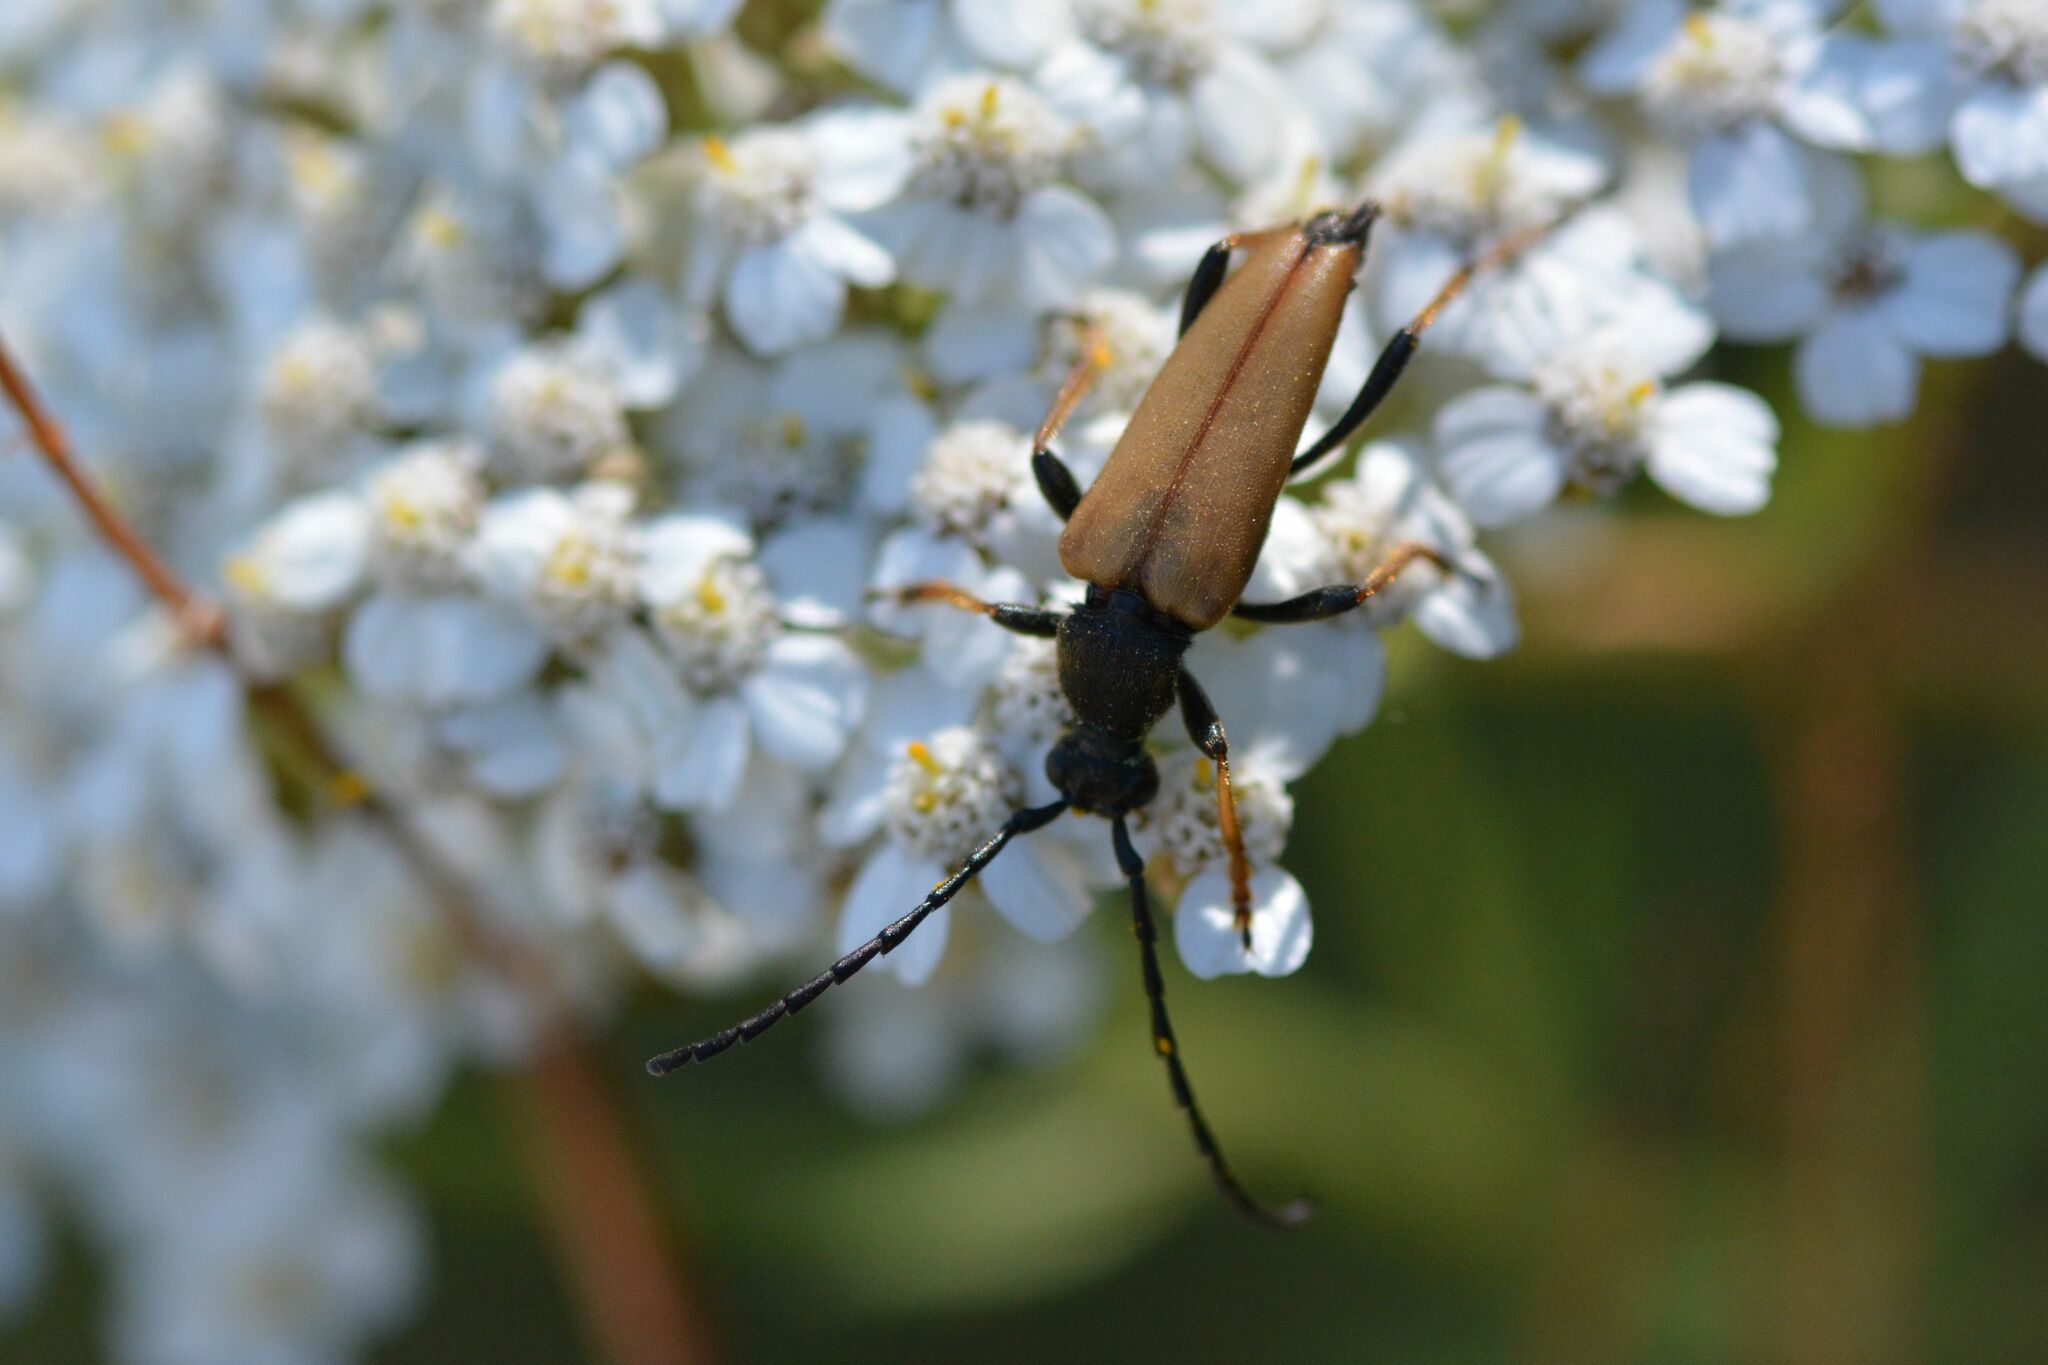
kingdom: Animalia
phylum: Arthropoda
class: Insecta
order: Coleoptera
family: Cerambycidae
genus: Stictoleptura
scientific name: Stictoleptura rubra
